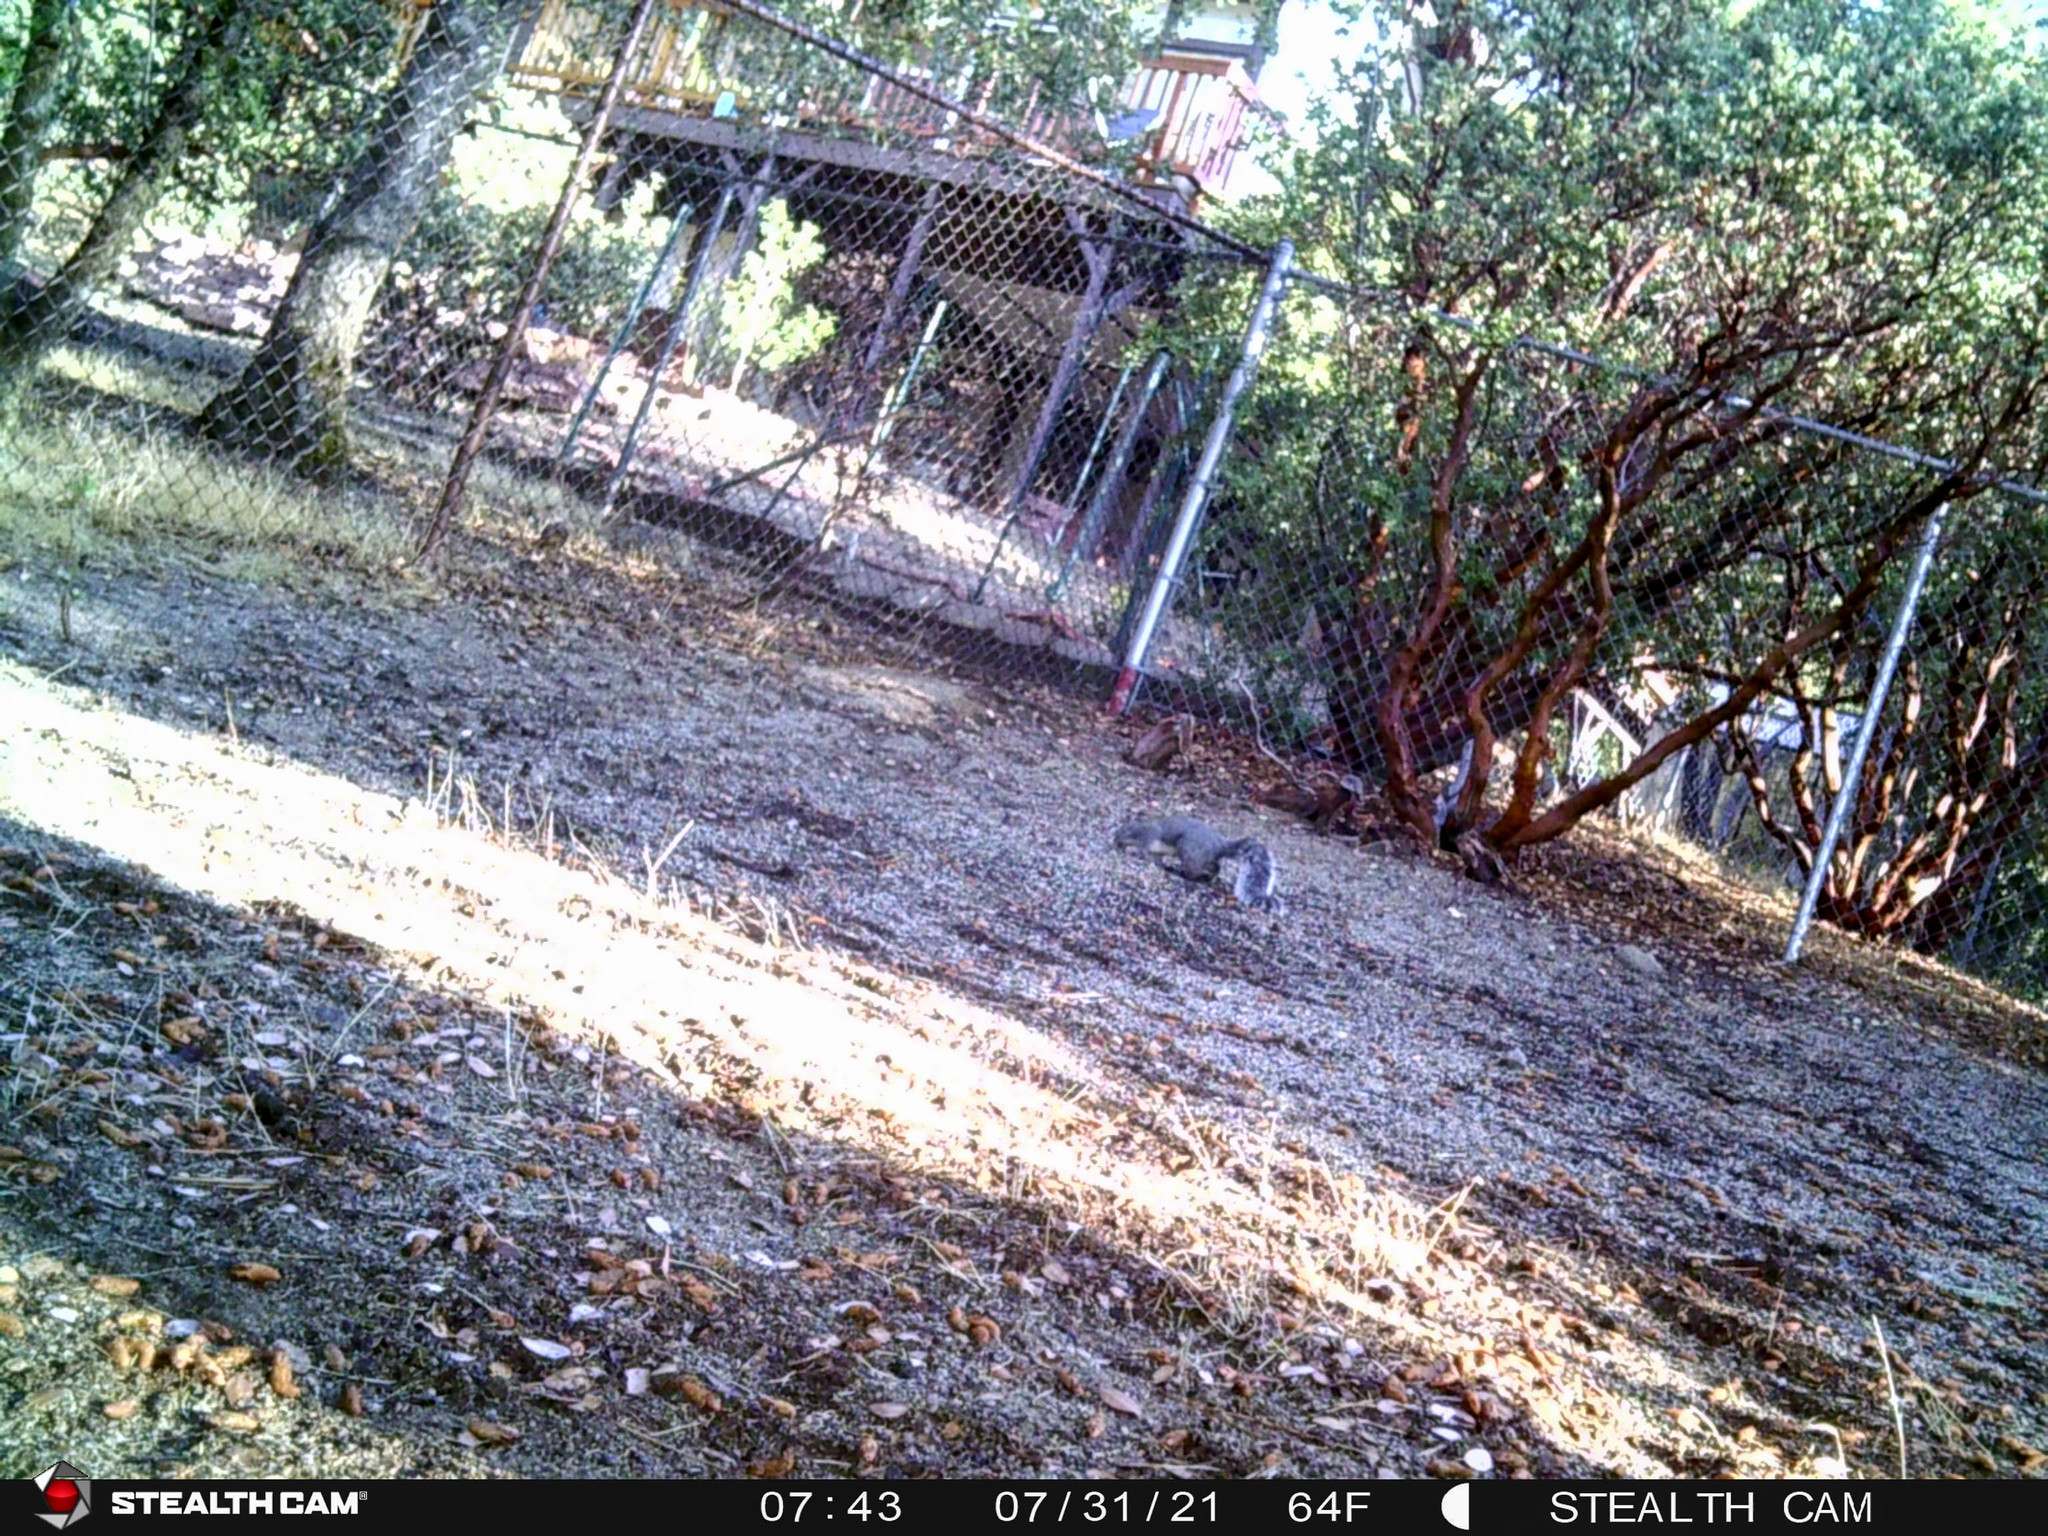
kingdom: Animalia
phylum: Chordata
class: Mammalia
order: Rodentia
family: Sciuridae
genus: Sciurus
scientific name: Sciurus griseus
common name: Western gray squirrel
